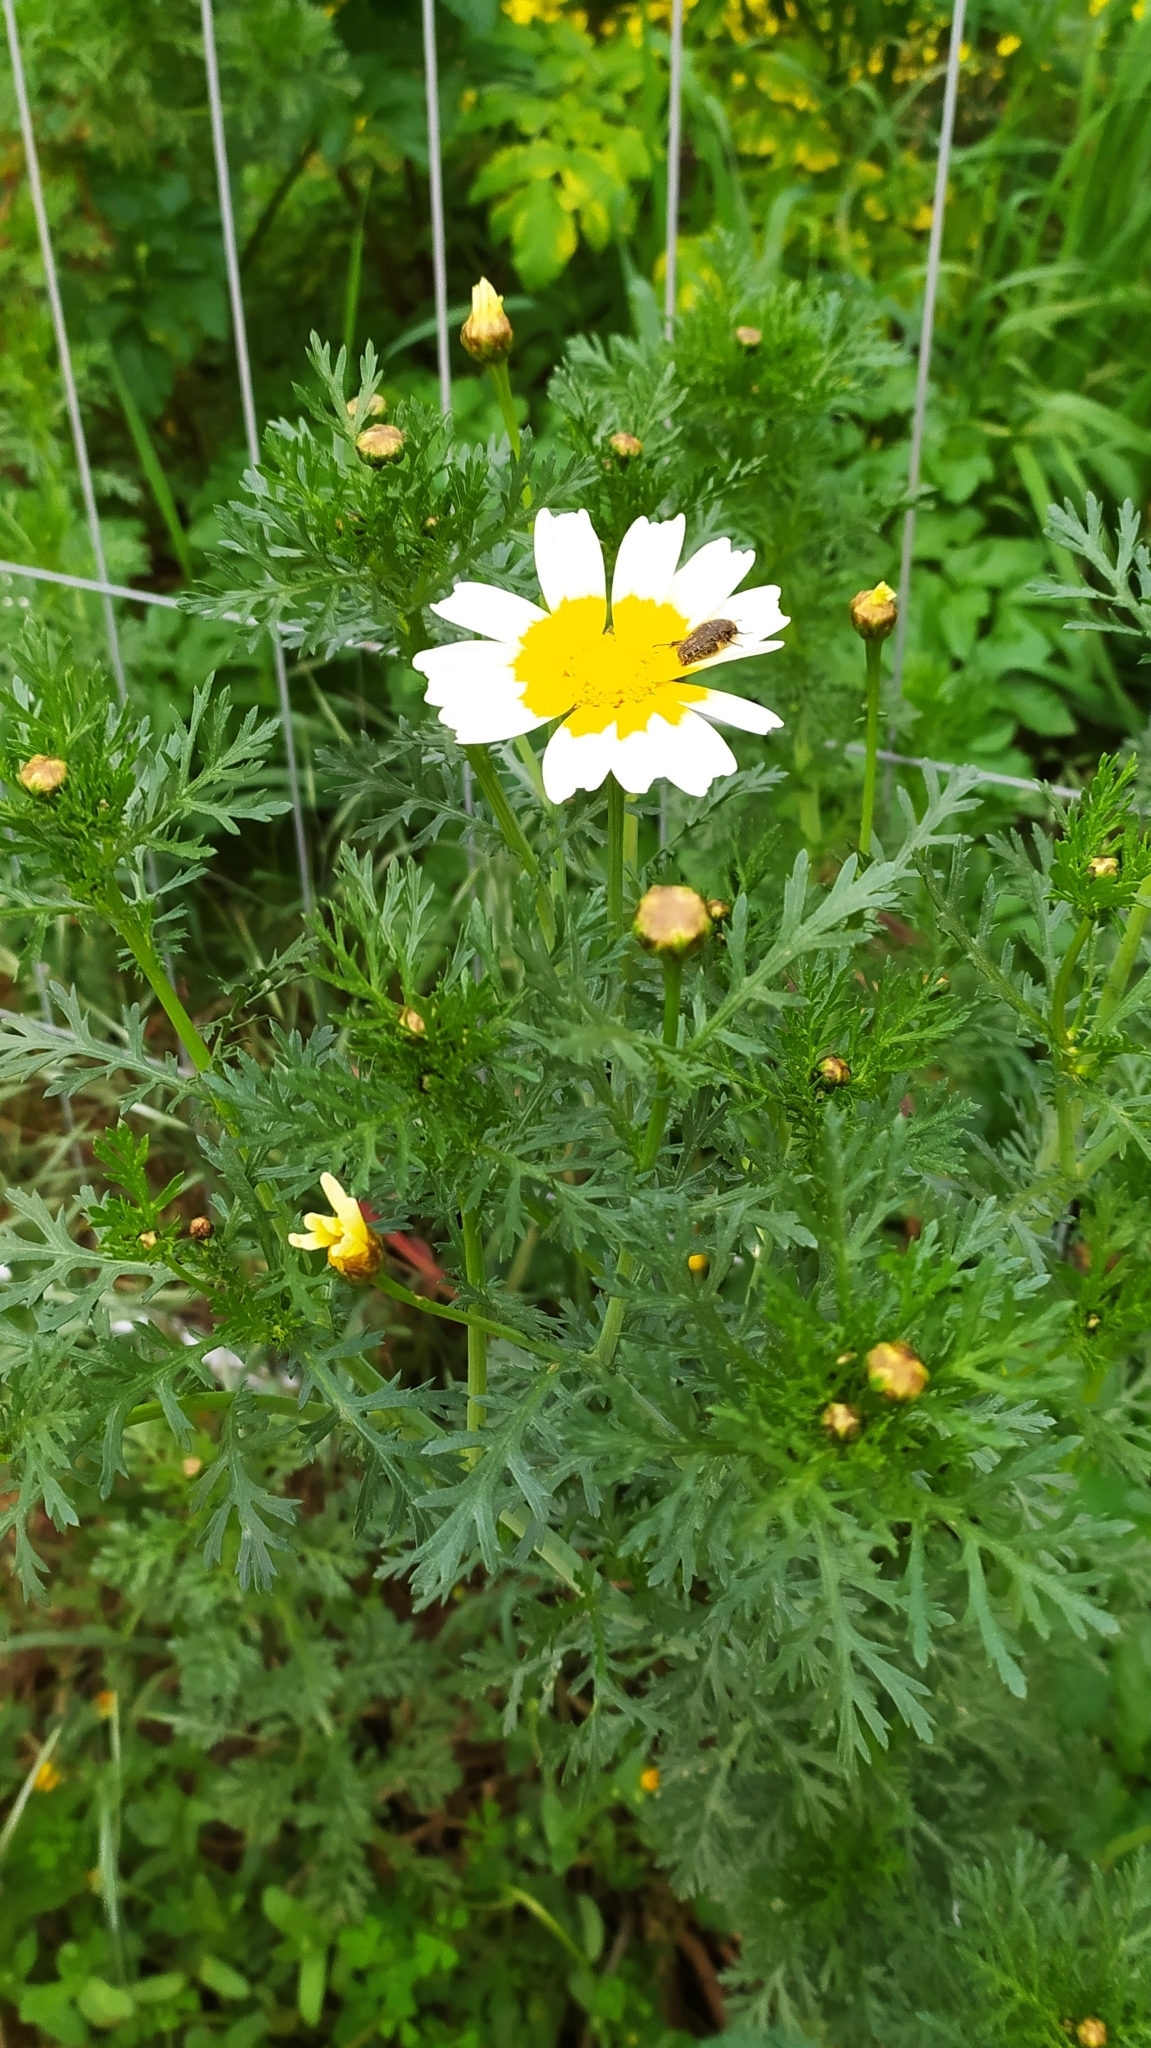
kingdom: Plantae
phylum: Tracheophyta
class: Magnoliopsida
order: Asterales
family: Asteraceae
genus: Glebionis
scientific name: Glebionis coronaria
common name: Crowndaisy
